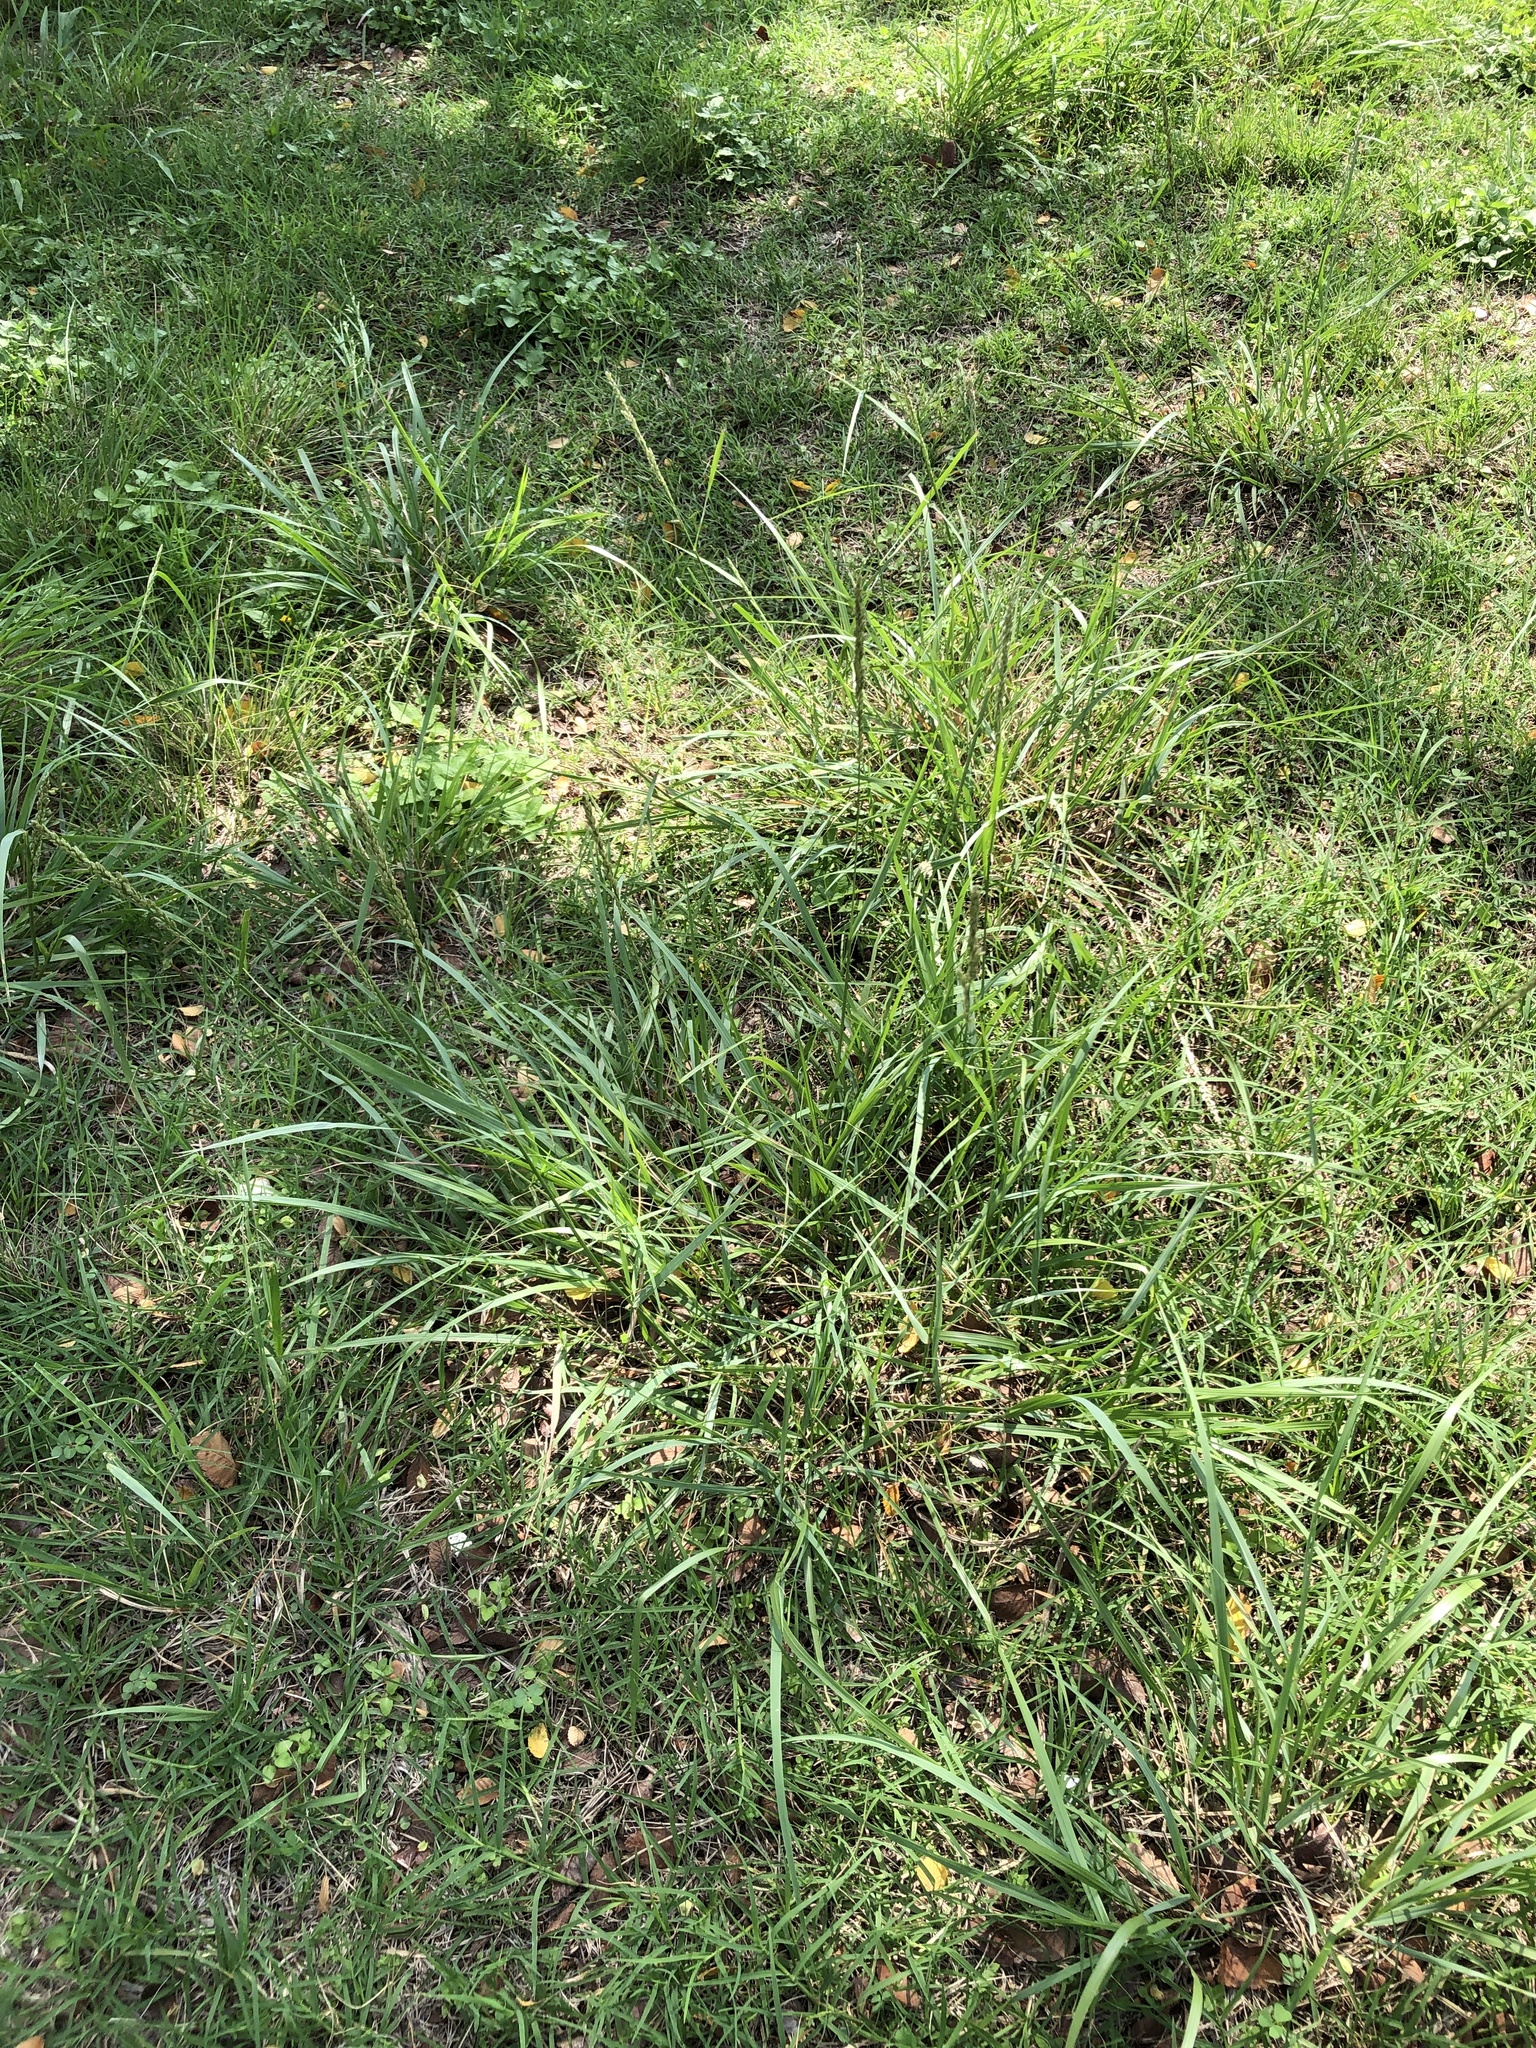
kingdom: Plantae
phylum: Tracheophyta
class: Liliopsida
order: Poales
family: Poaceae
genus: Tridens
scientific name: Tridens albescens
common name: White tridens
